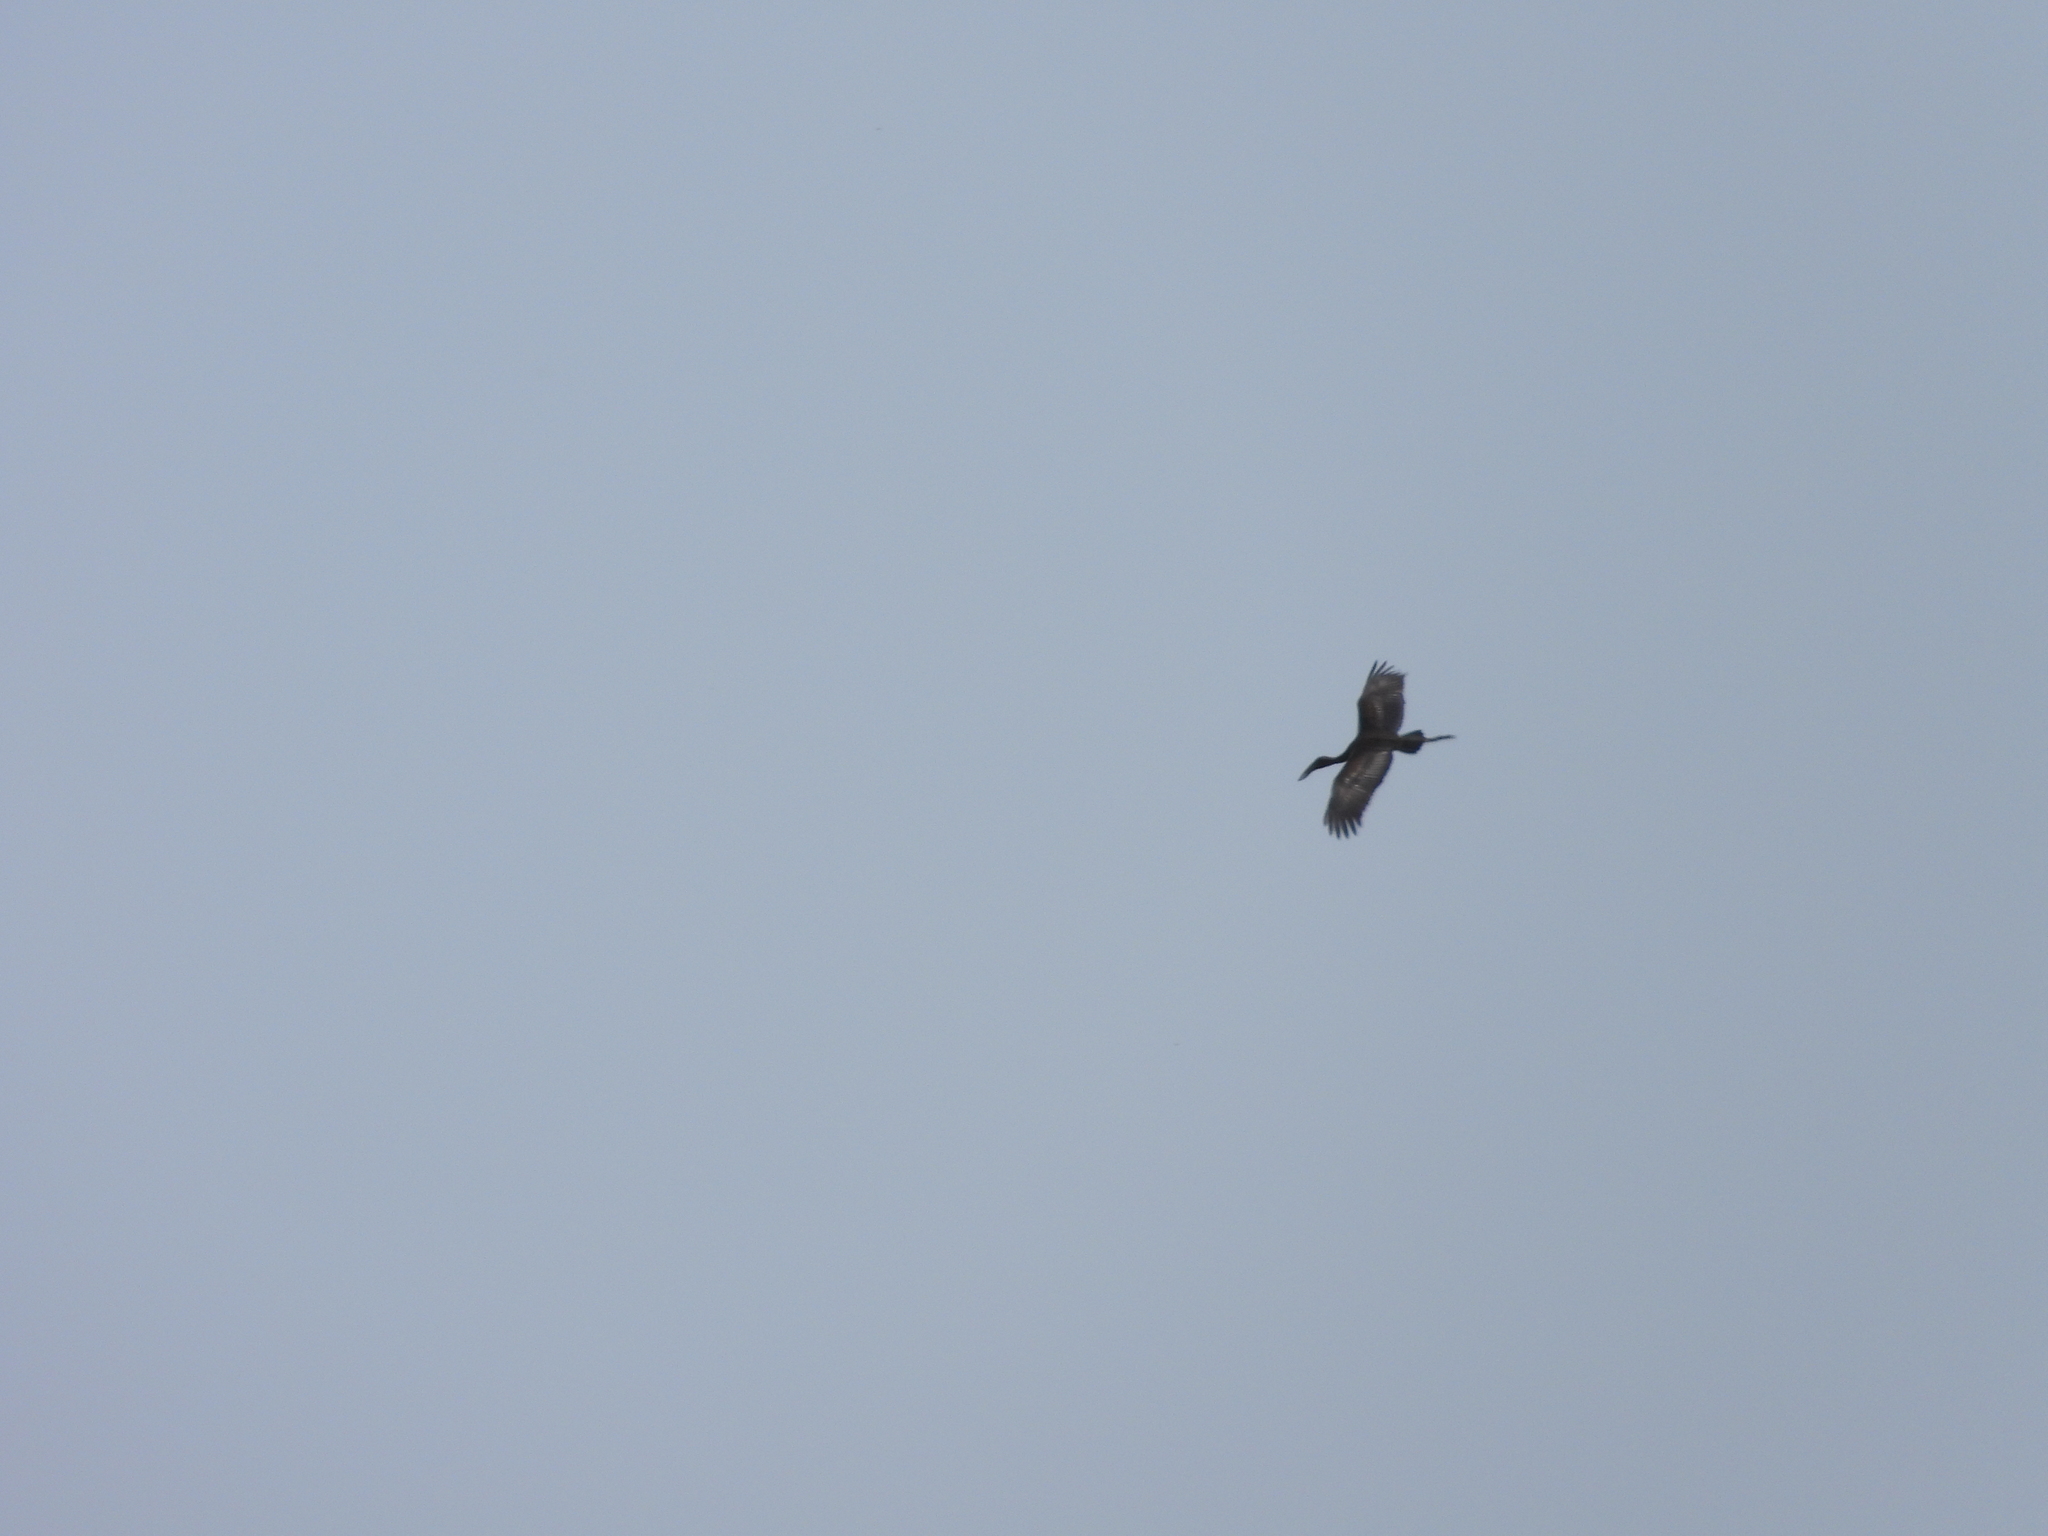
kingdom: Animalia
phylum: Chordata
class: Aves
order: Ciconiiformes
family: Ciconiidae
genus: Anastomus
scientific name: Anastomus lamelligerus
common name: African openbill
